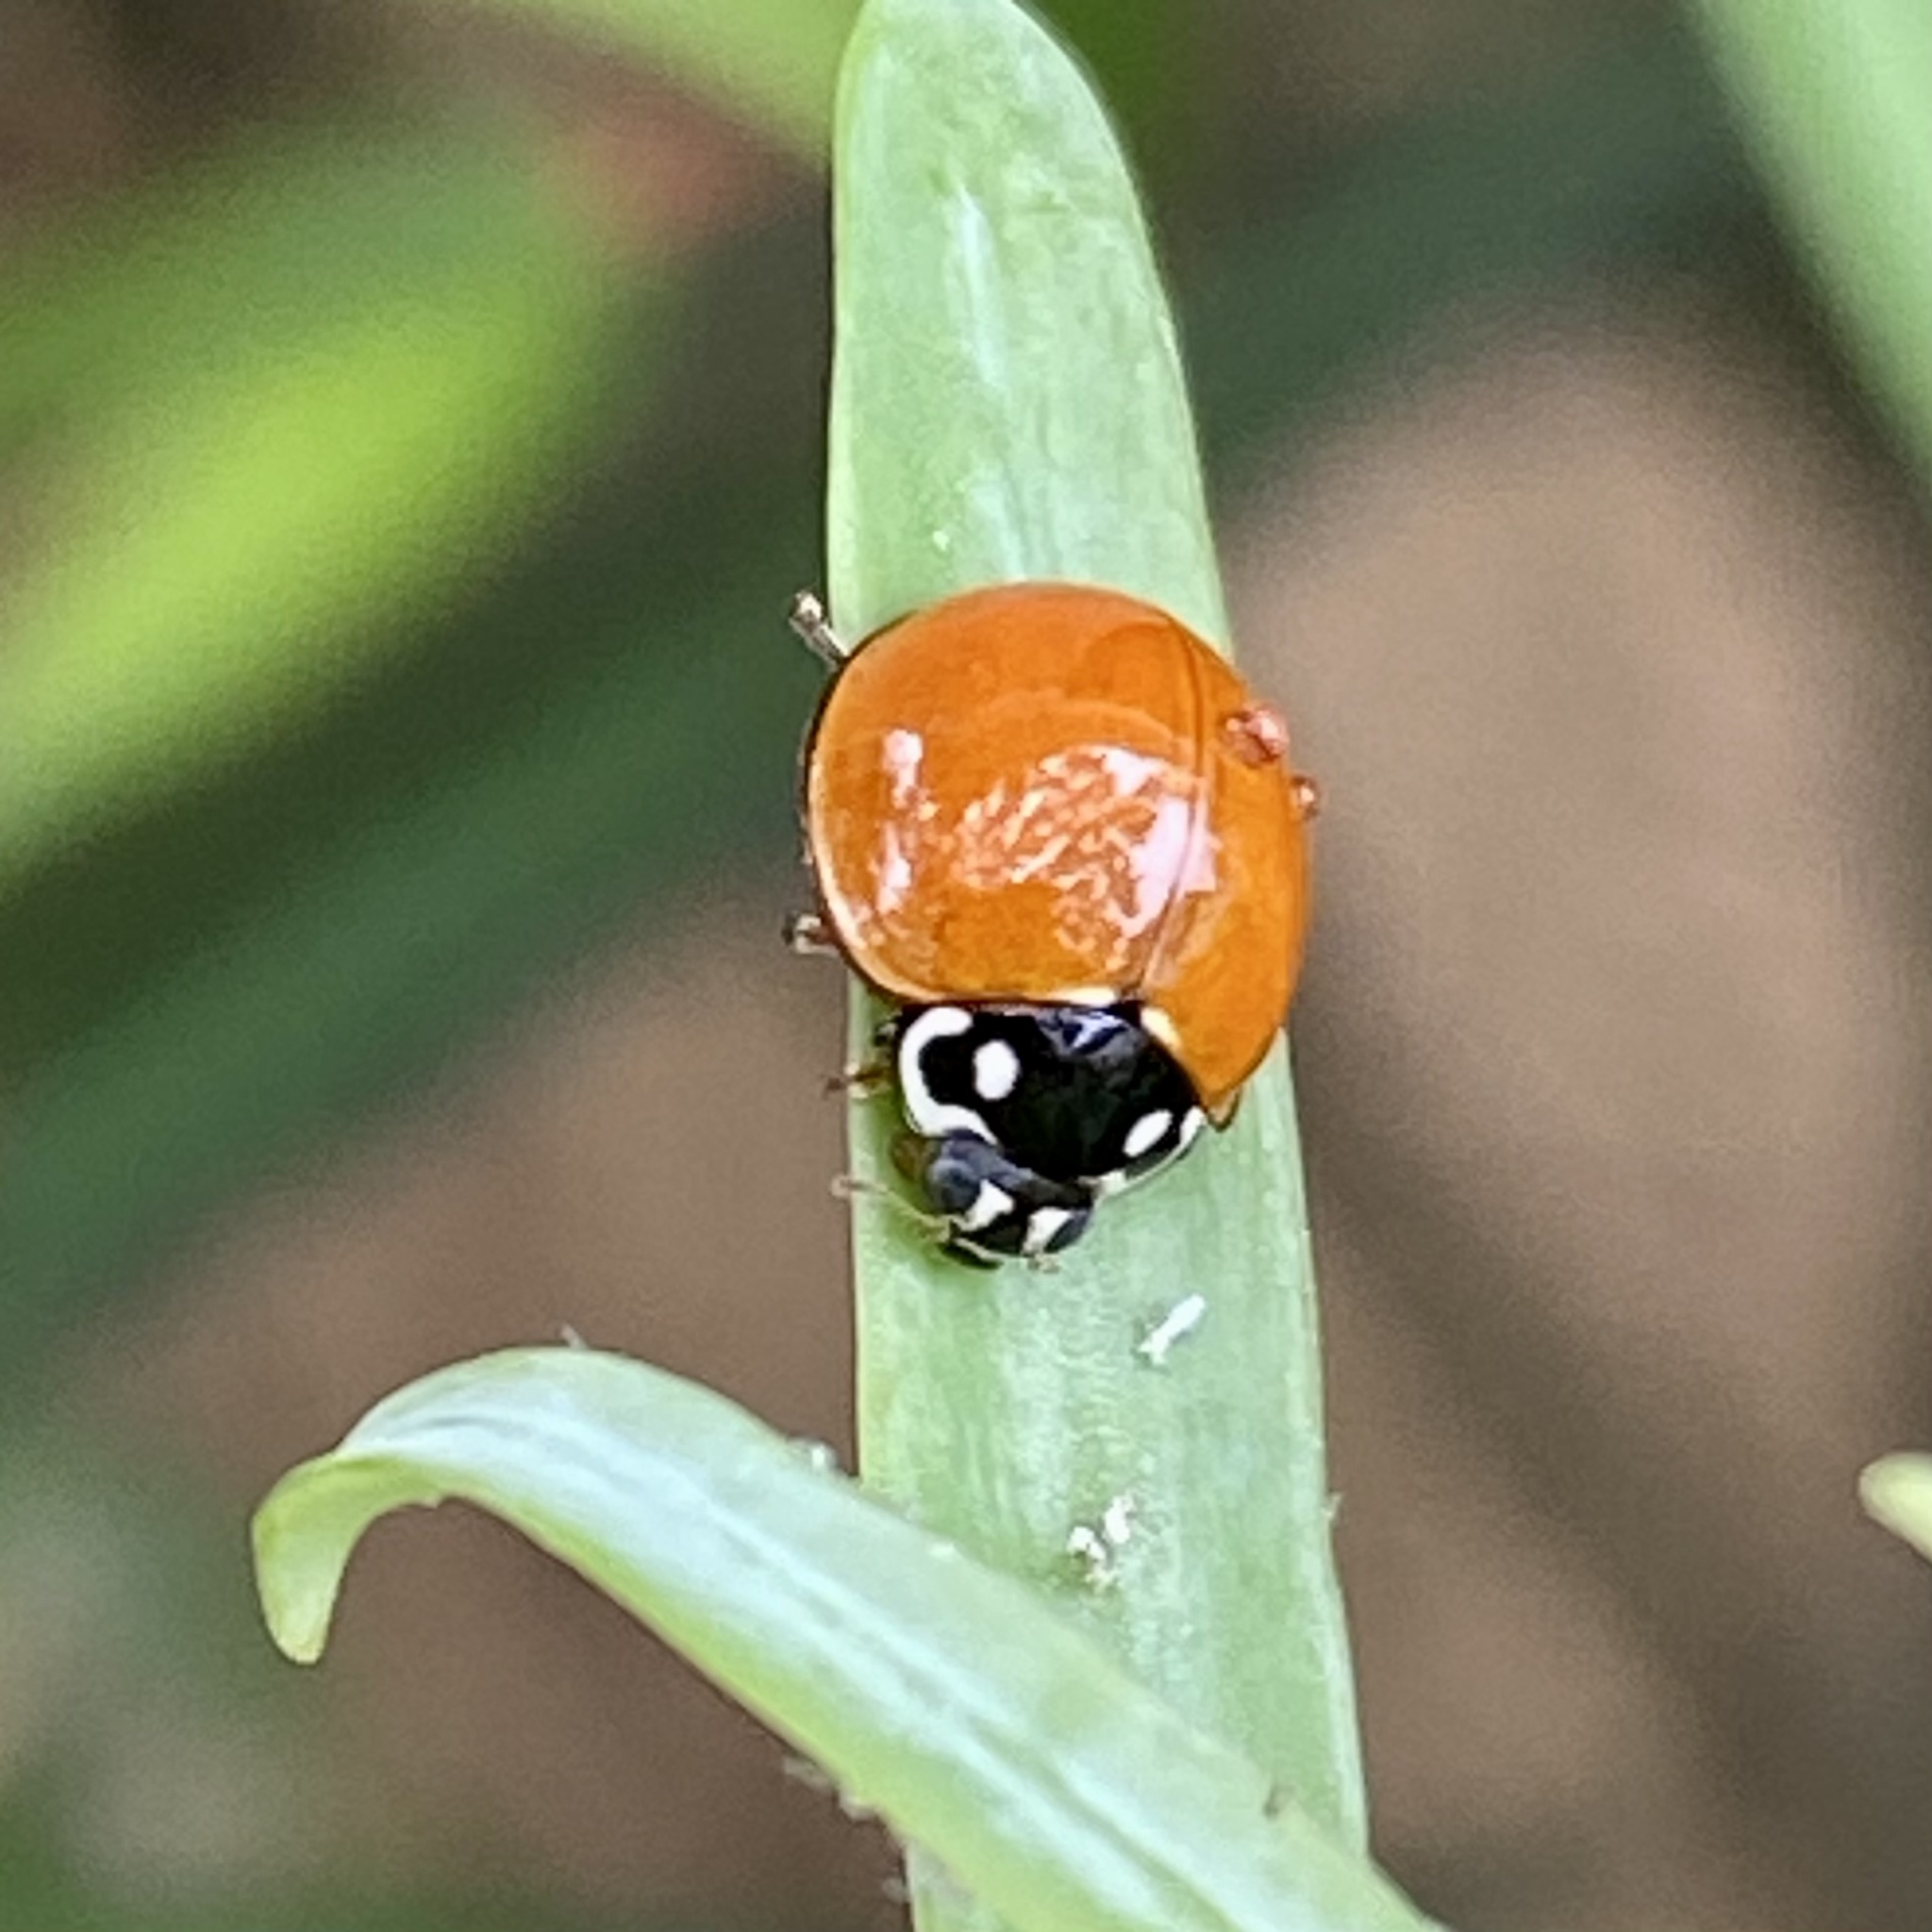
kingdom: Animalia
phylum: Arthropoda
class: Insecta
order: Coleoptera
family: Coccinellidae
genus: Cycloneda
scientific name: Cycloneda sanguinea
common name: Ladybird beetle
